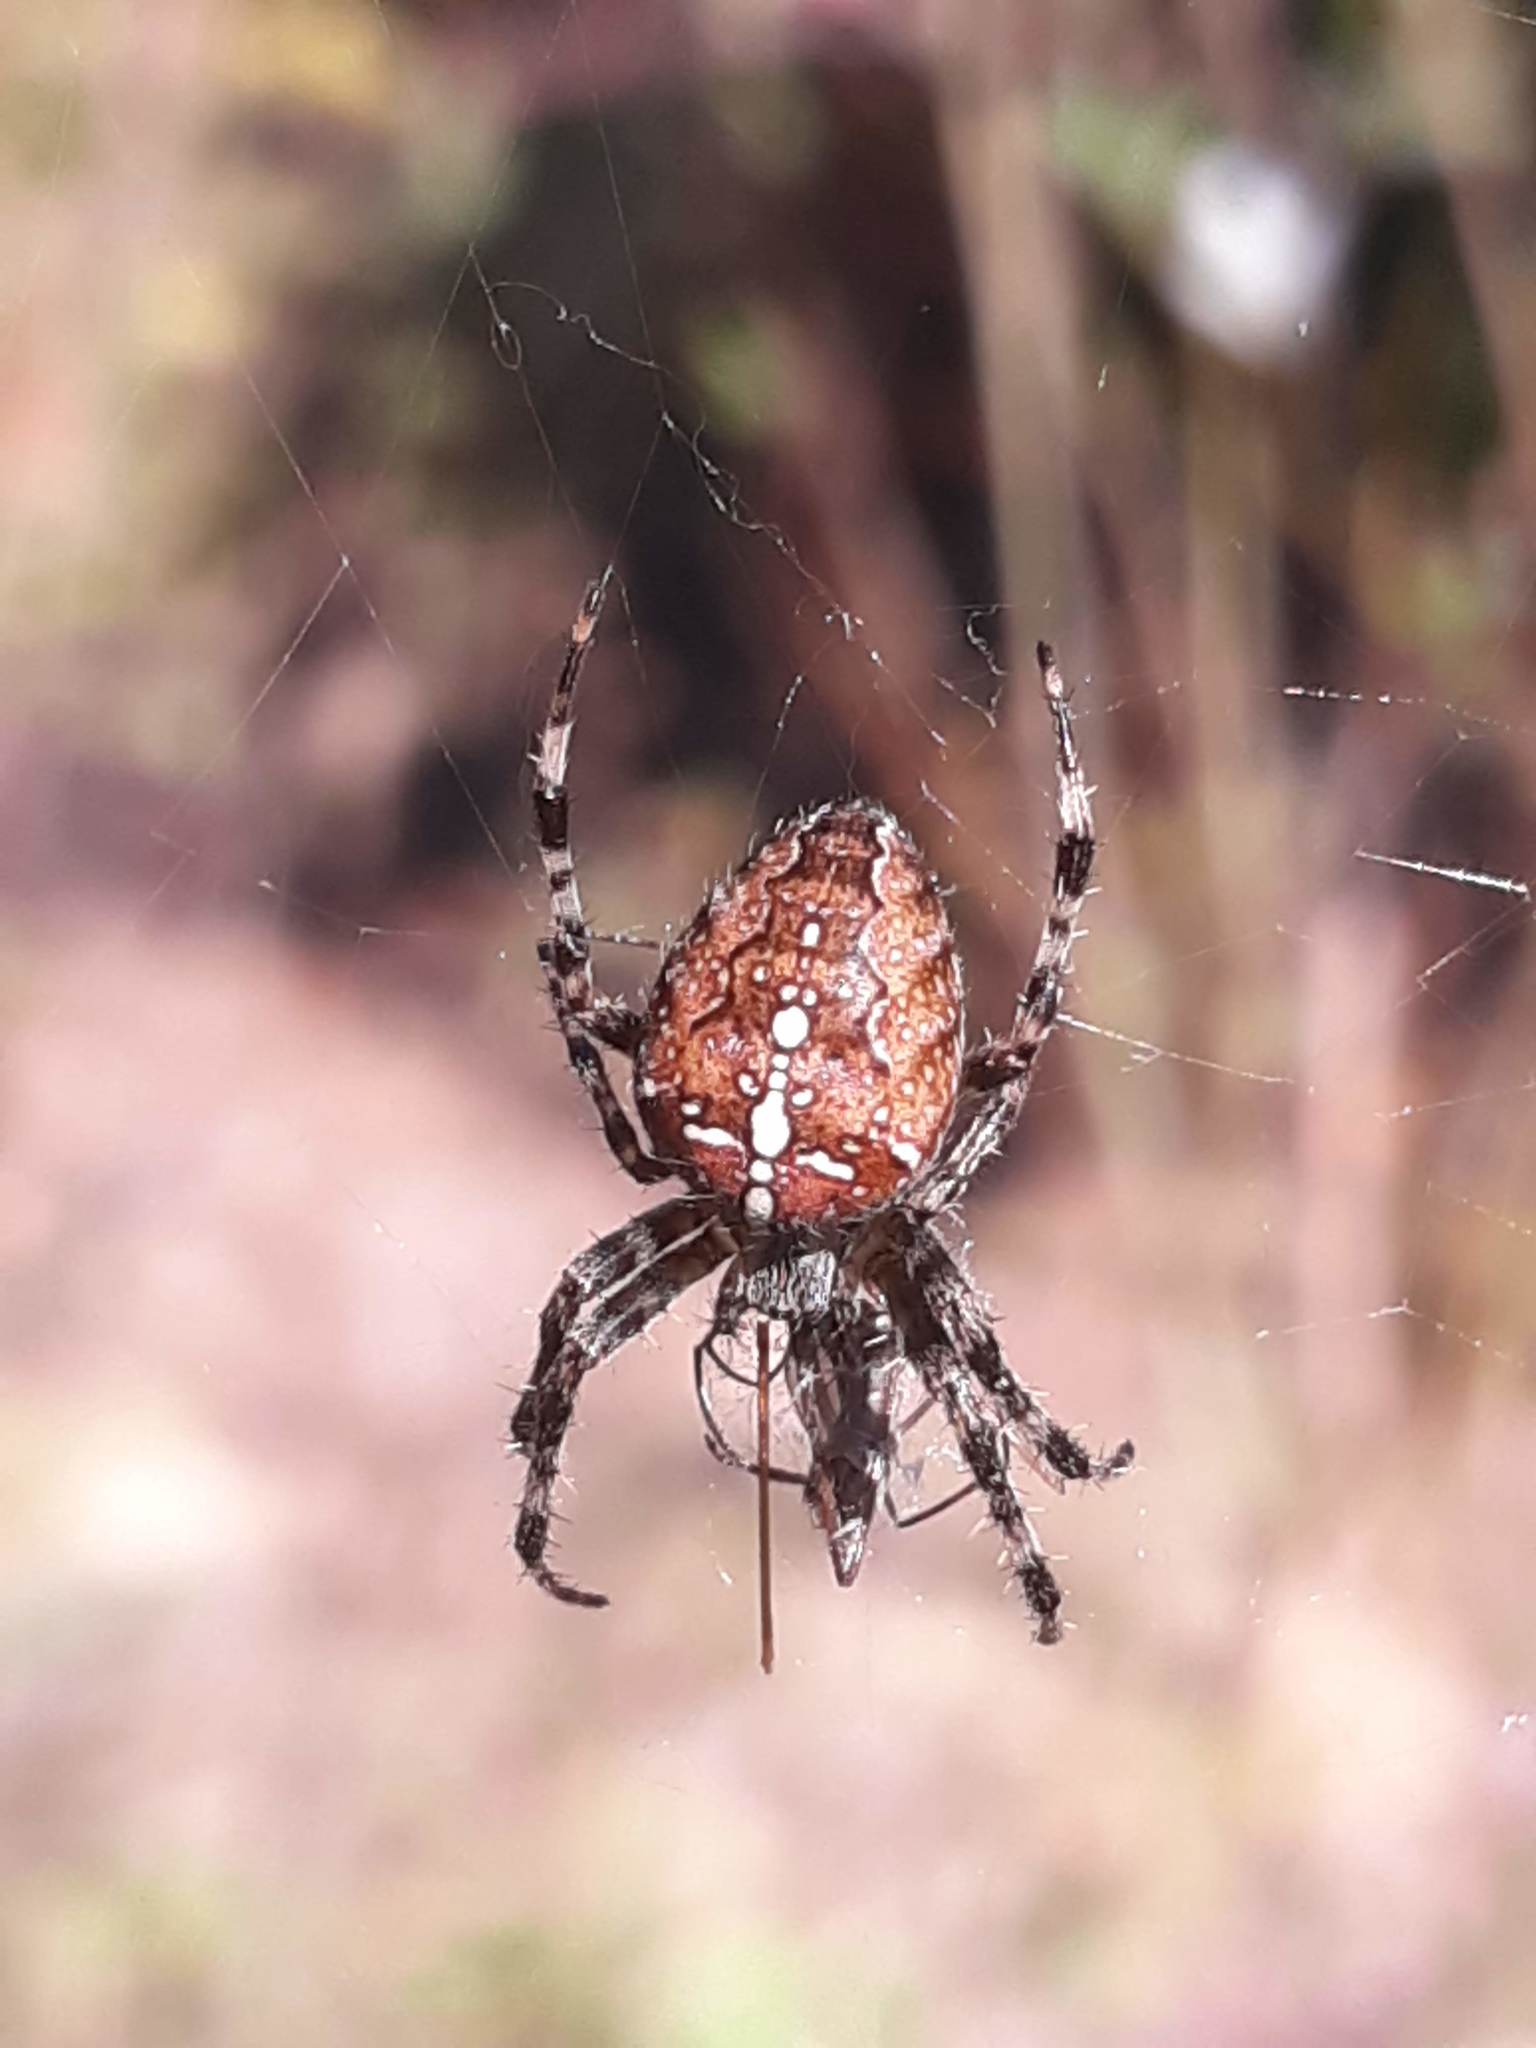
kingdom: Animalia
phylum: Arthropoda
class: Arachnida
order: Araneae
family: Araneidae
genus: Araneus
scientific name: Araneus diadematus
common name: Cross orbweaver
